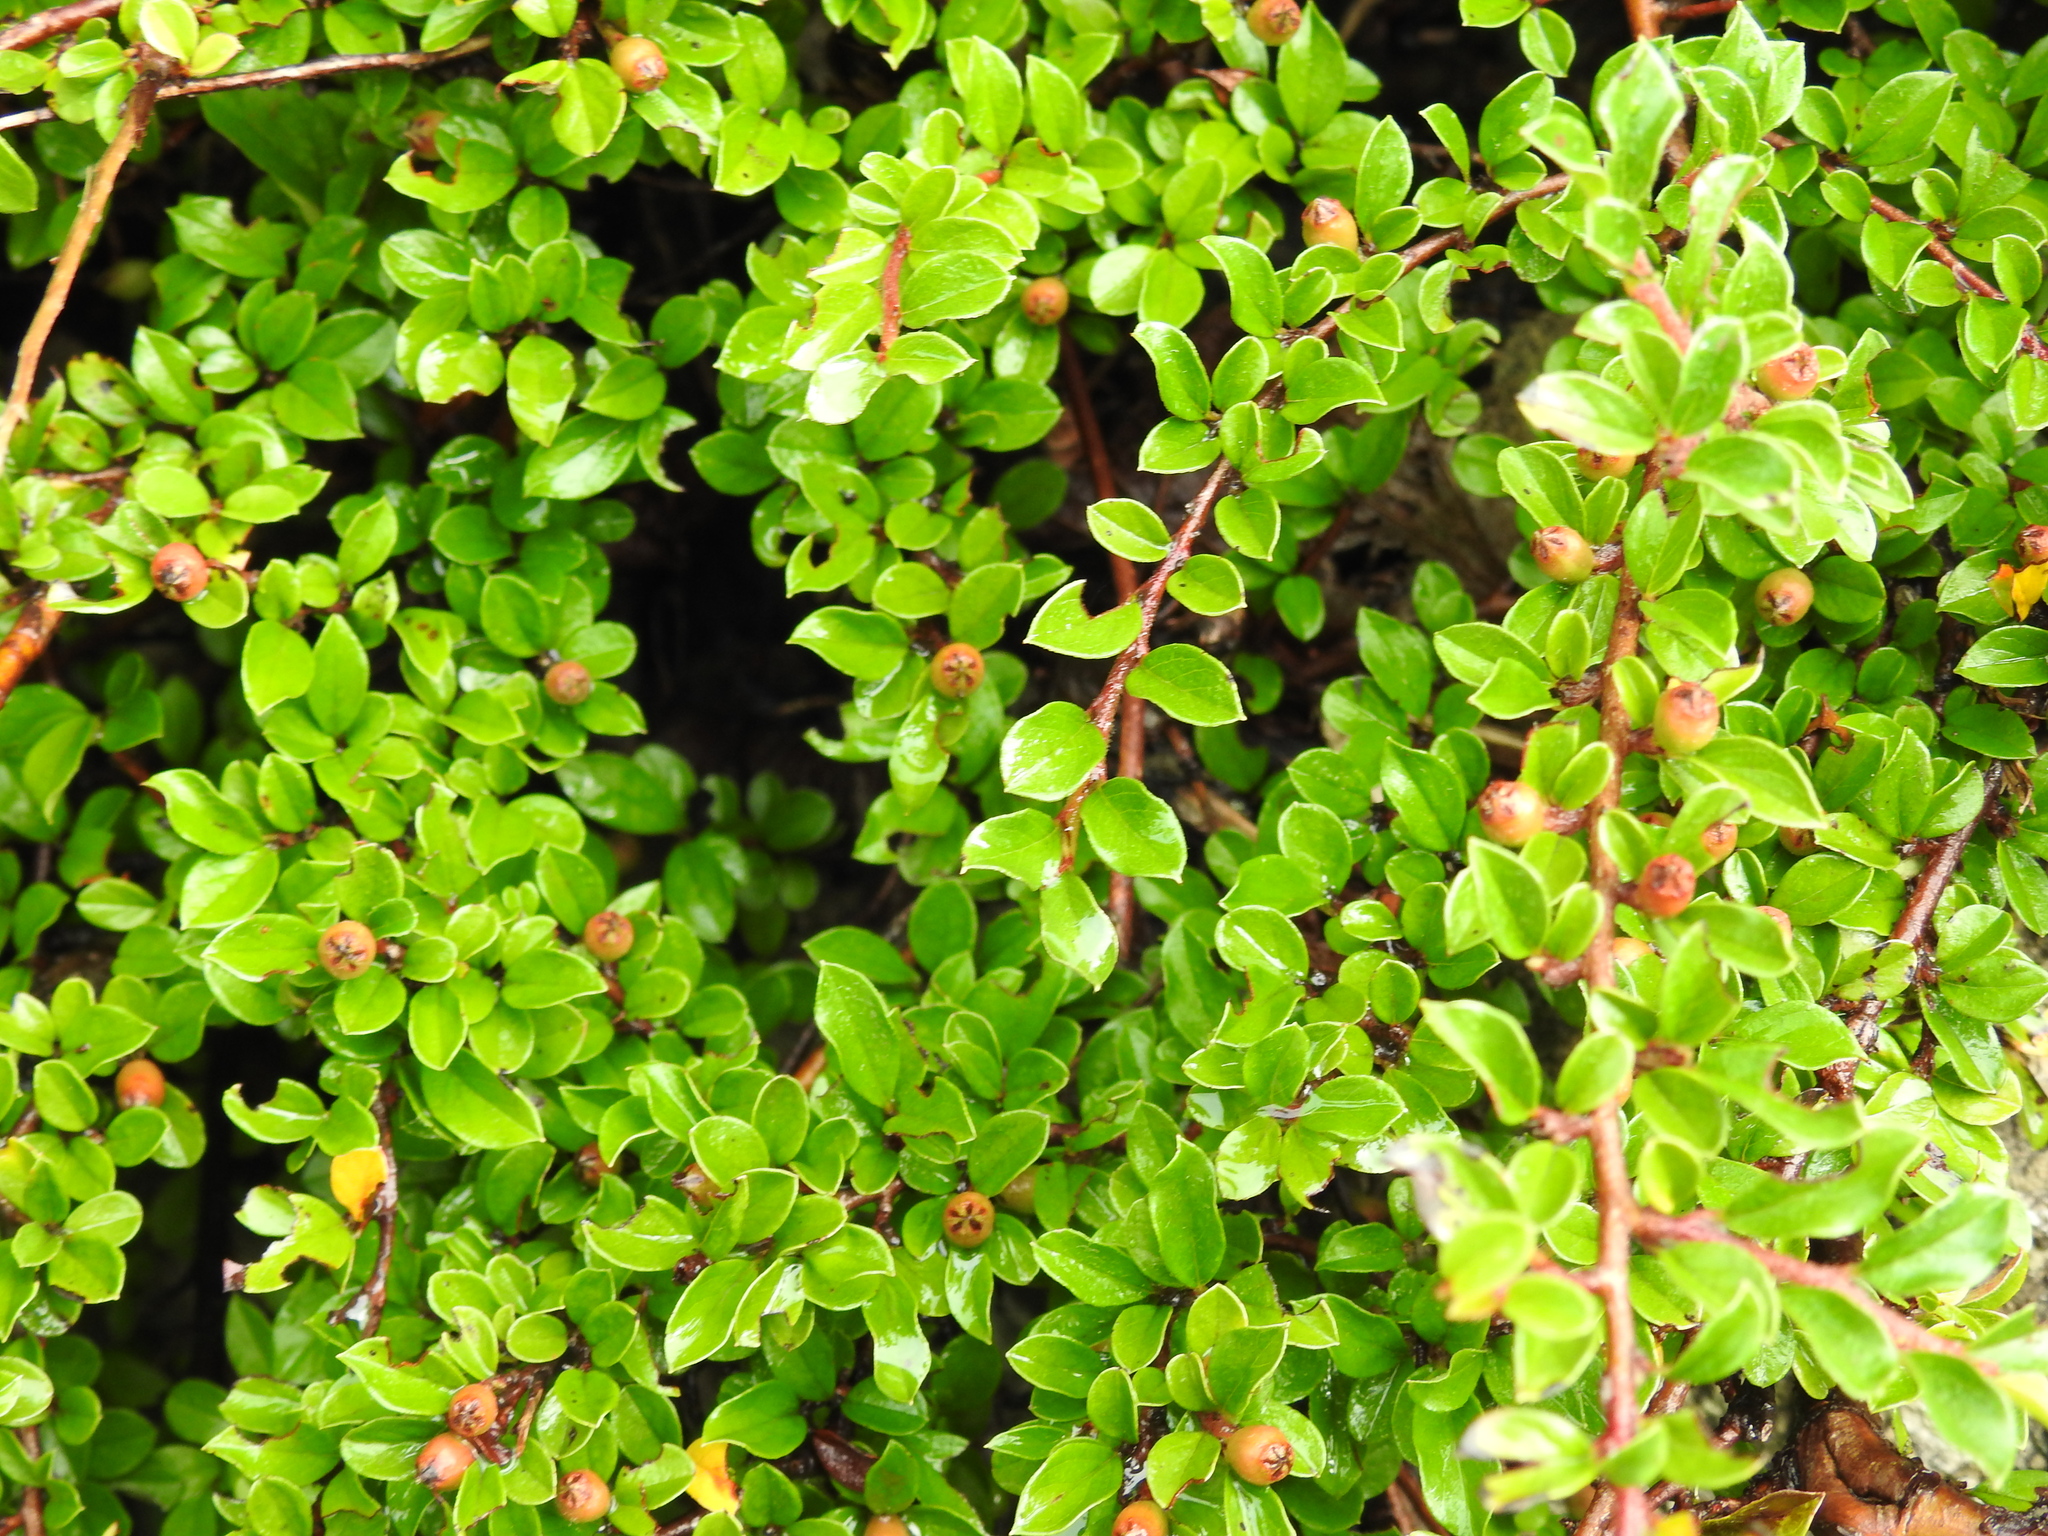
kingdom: Plantae
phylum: Tracheophyta
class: Magnoliopsida
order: Rosales
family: Rosaceae
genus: Cotoneaster
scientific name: Cotoneaster ascendens
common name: Ascending cotoneaster
